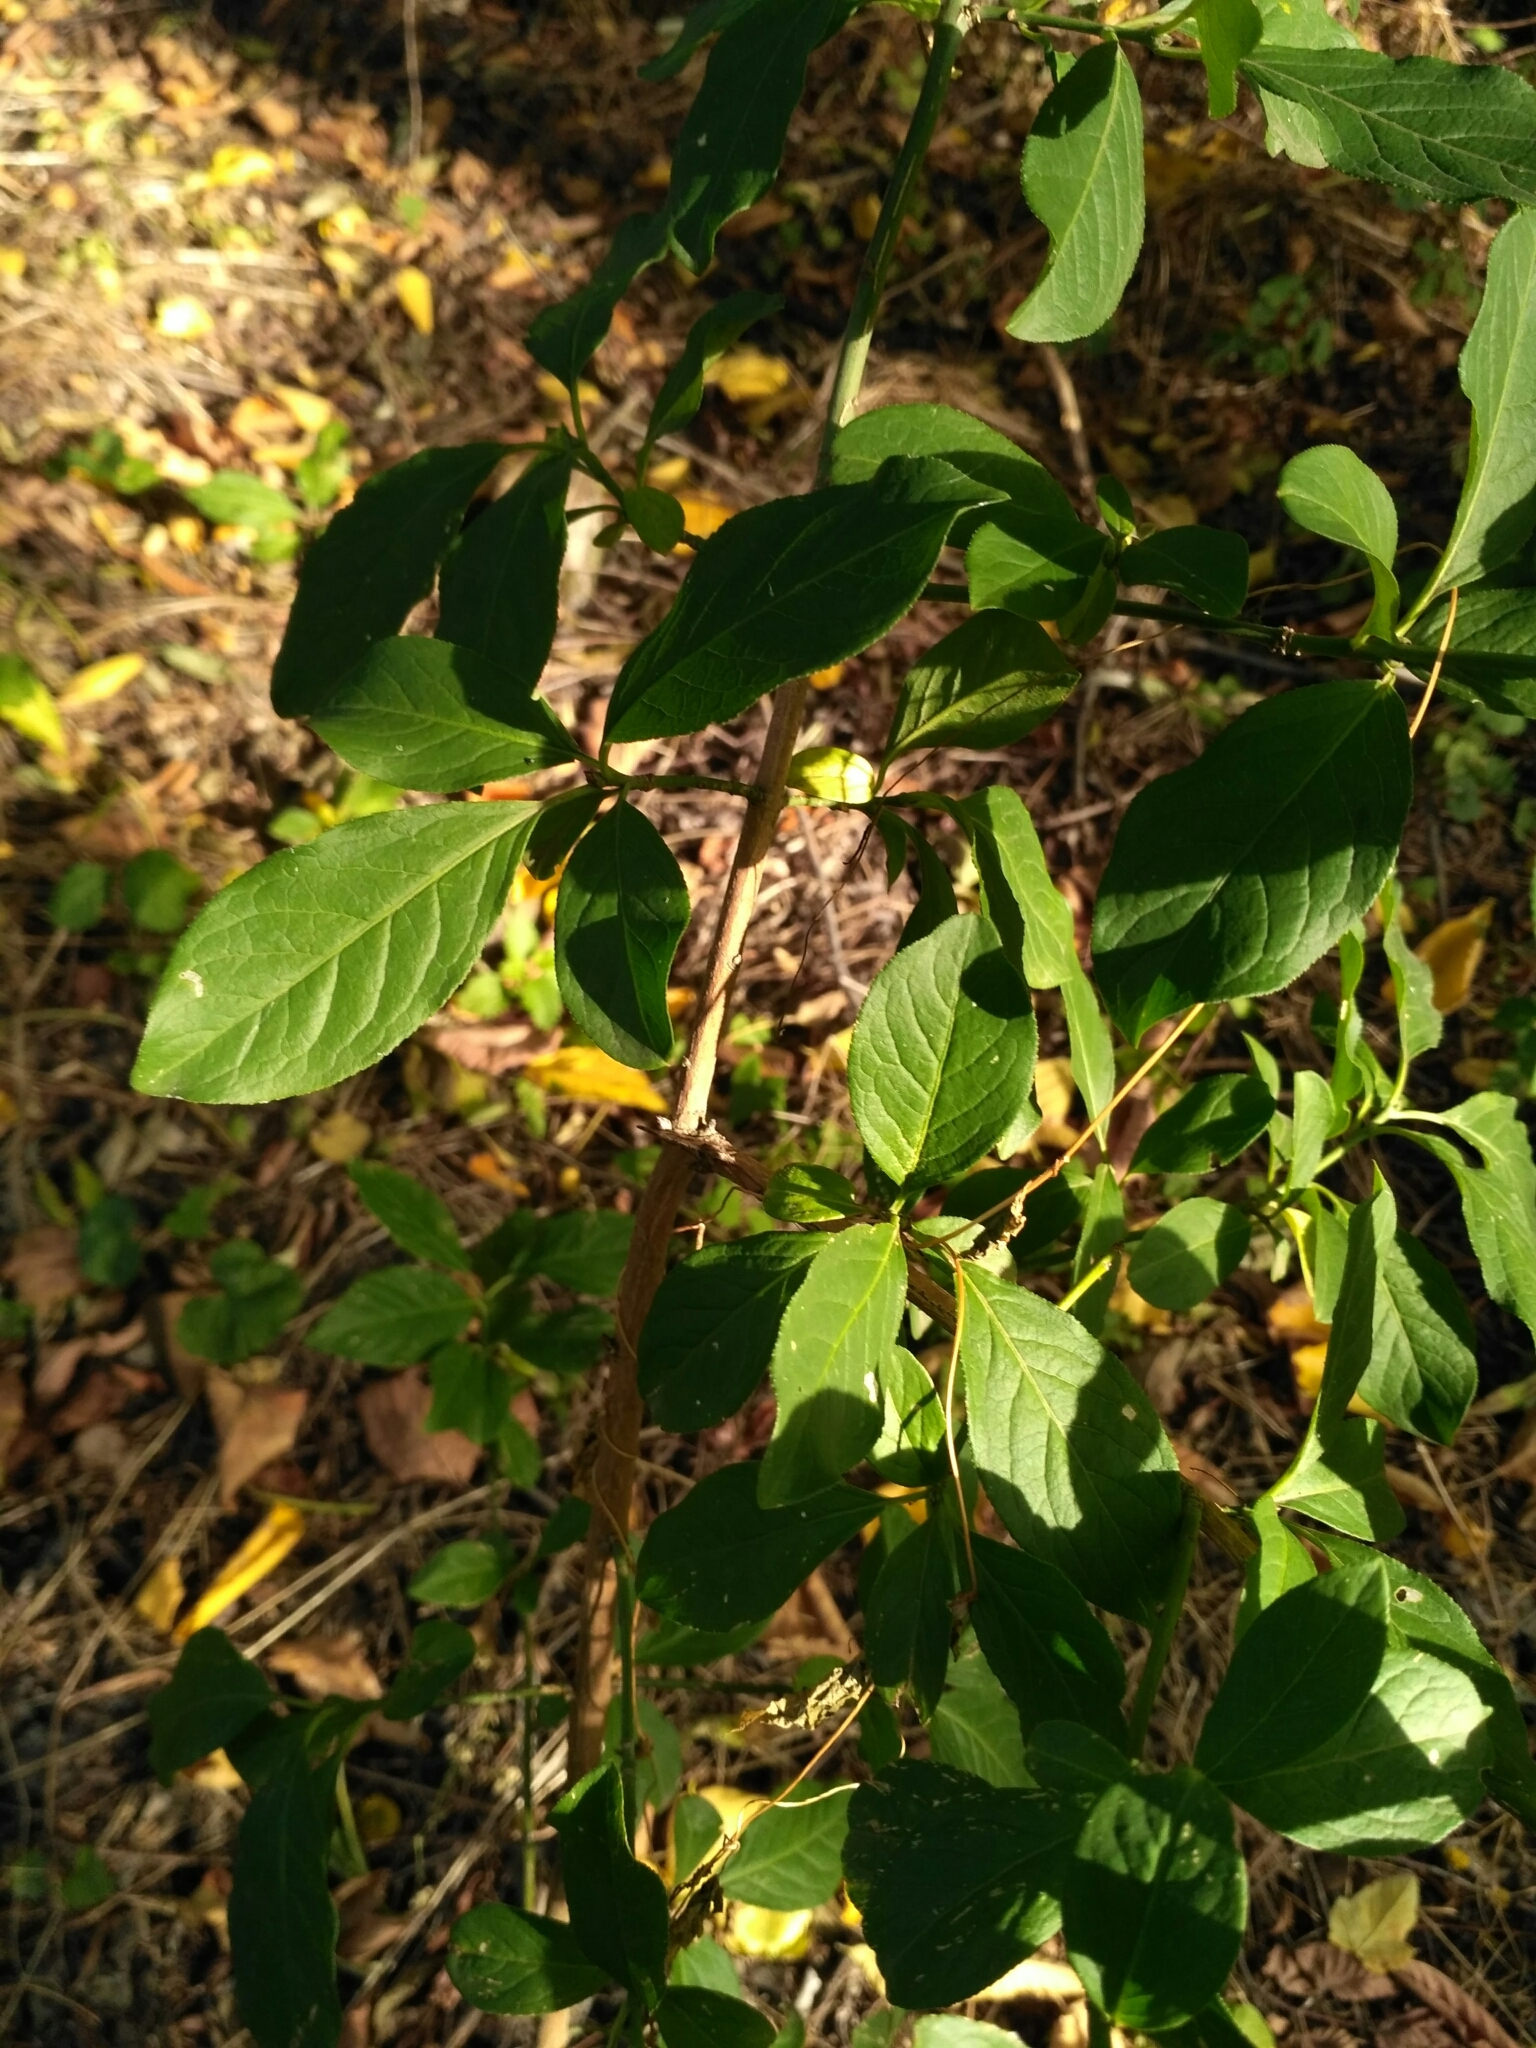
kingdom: Plantae
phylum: Tracheophyta
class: Magnoliopsida
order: Celastrales
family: Celastraceae
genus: Euonymus
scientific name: Euonymus europaeus
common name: Spindle
